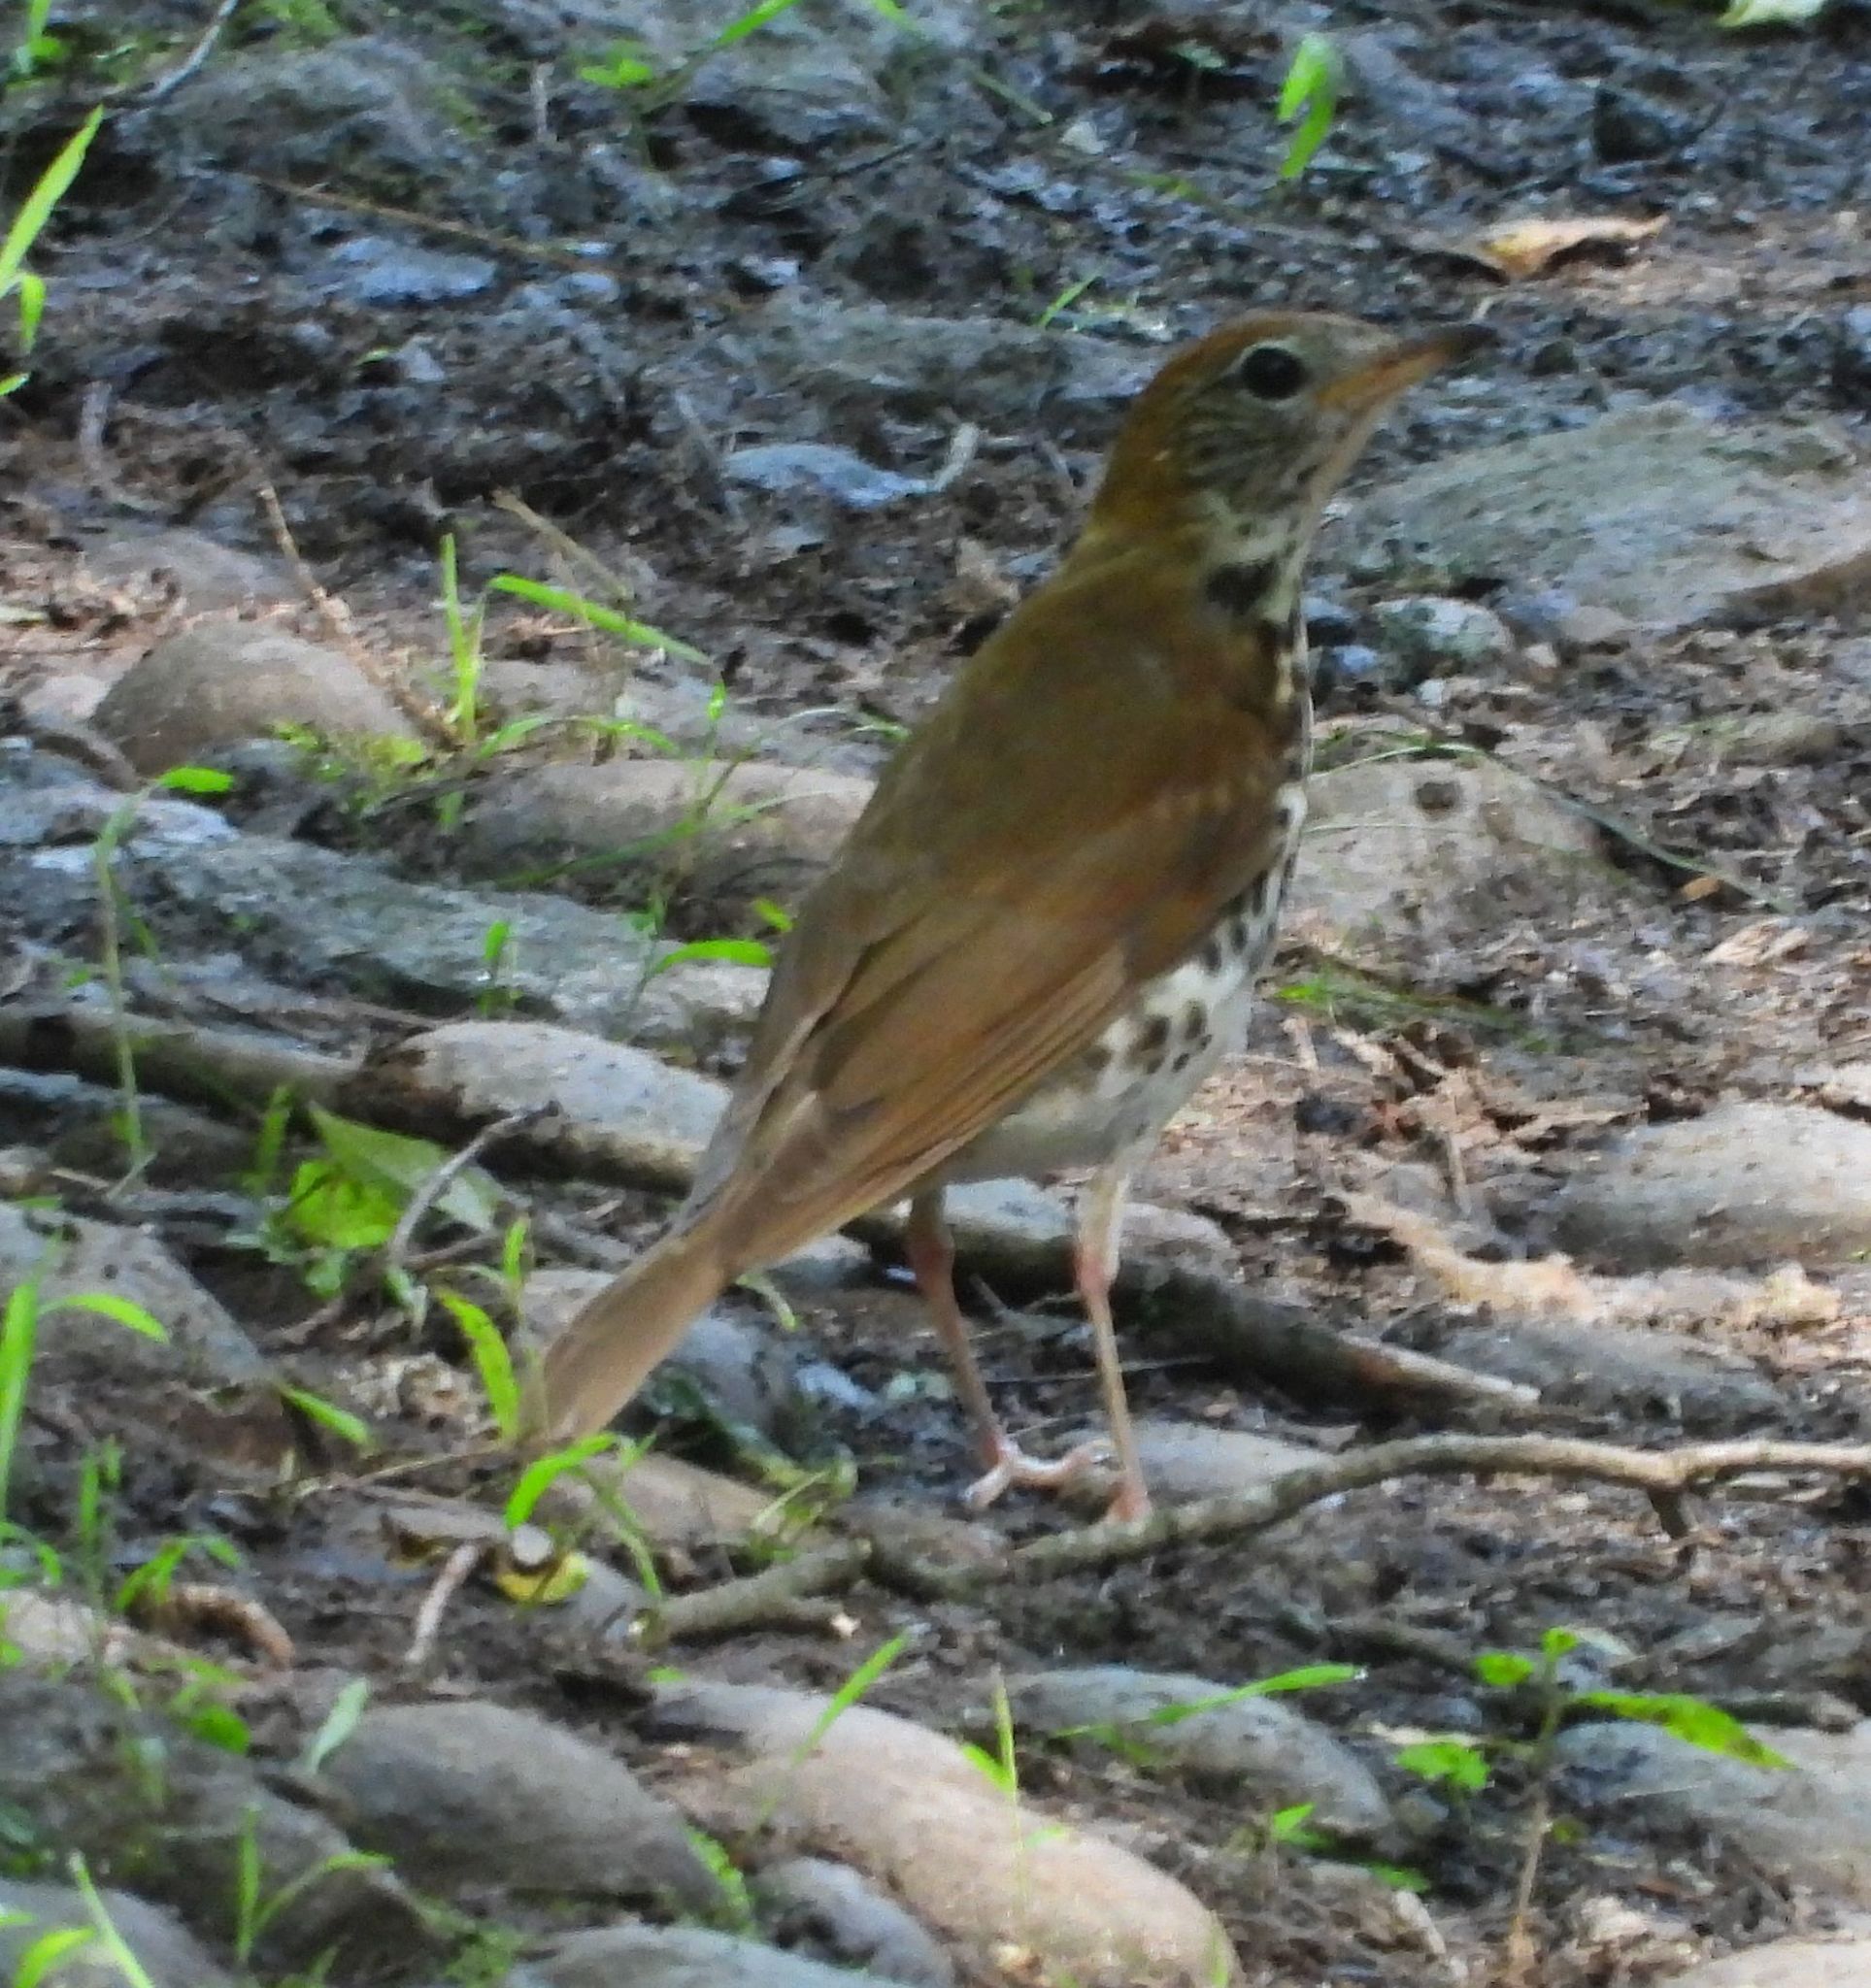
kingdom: Animalia
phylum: Chordata
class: Aves
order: Passeriformes
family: Turdidae
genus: Hylocichla
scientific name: Hylocichla mustelina
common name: Wood thrush
